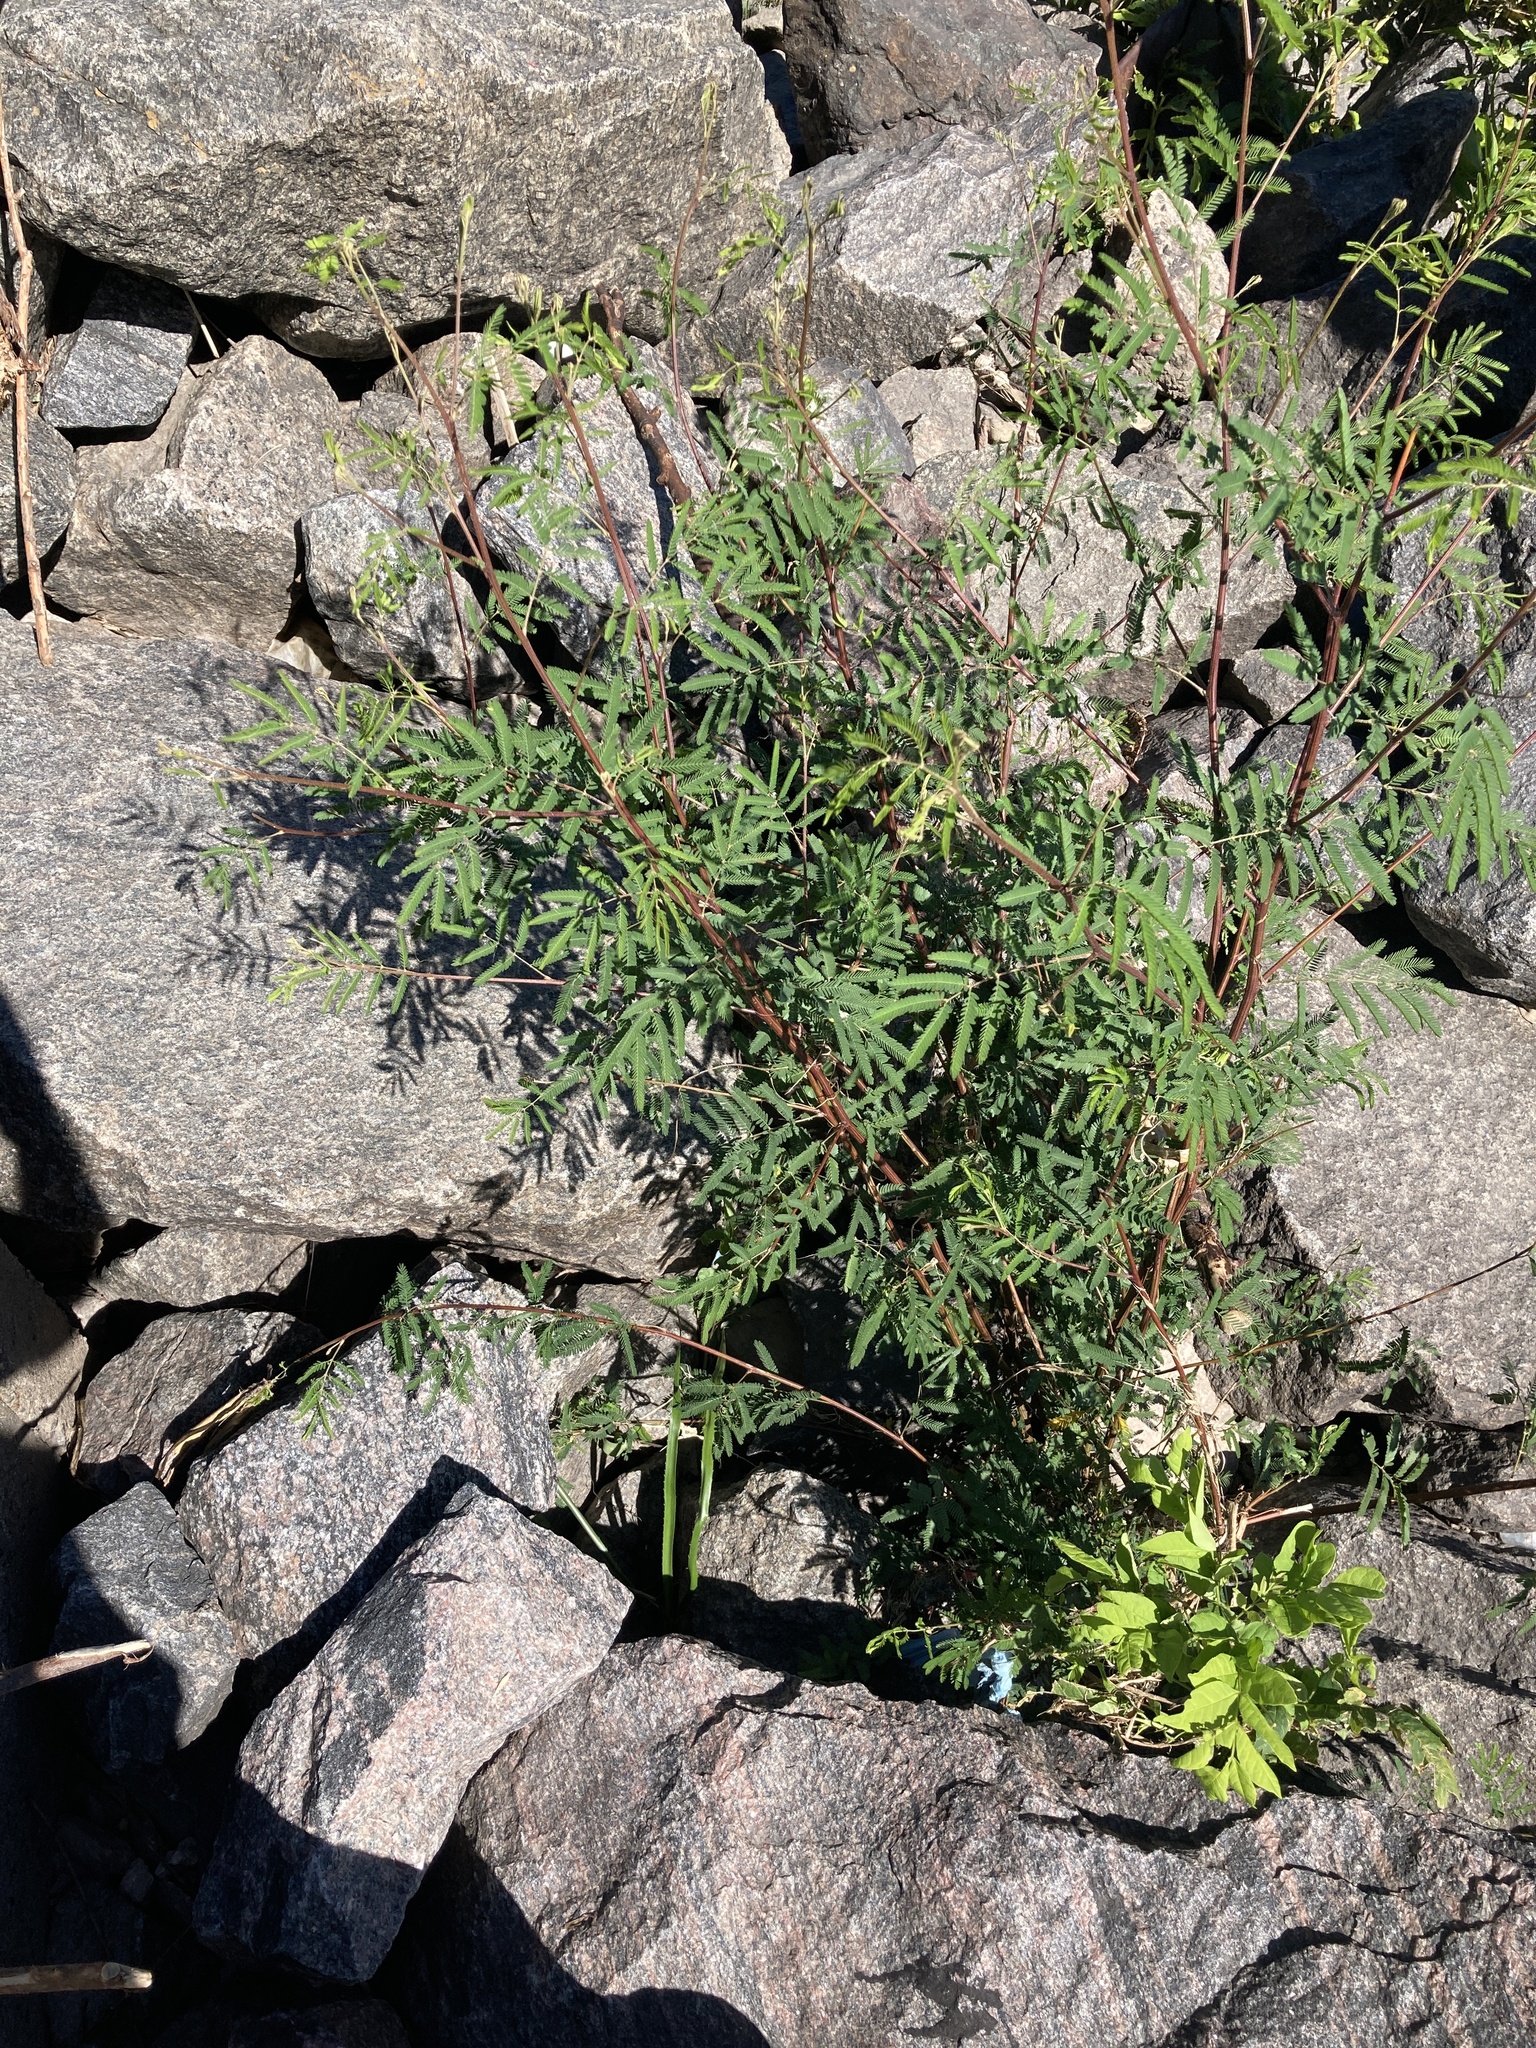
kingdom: Plantae
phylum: Tracheophyta
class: Magnoliopsida
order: Fabales
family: Fabaceae
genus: Mimosa
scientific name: Mimosa bonplandii
